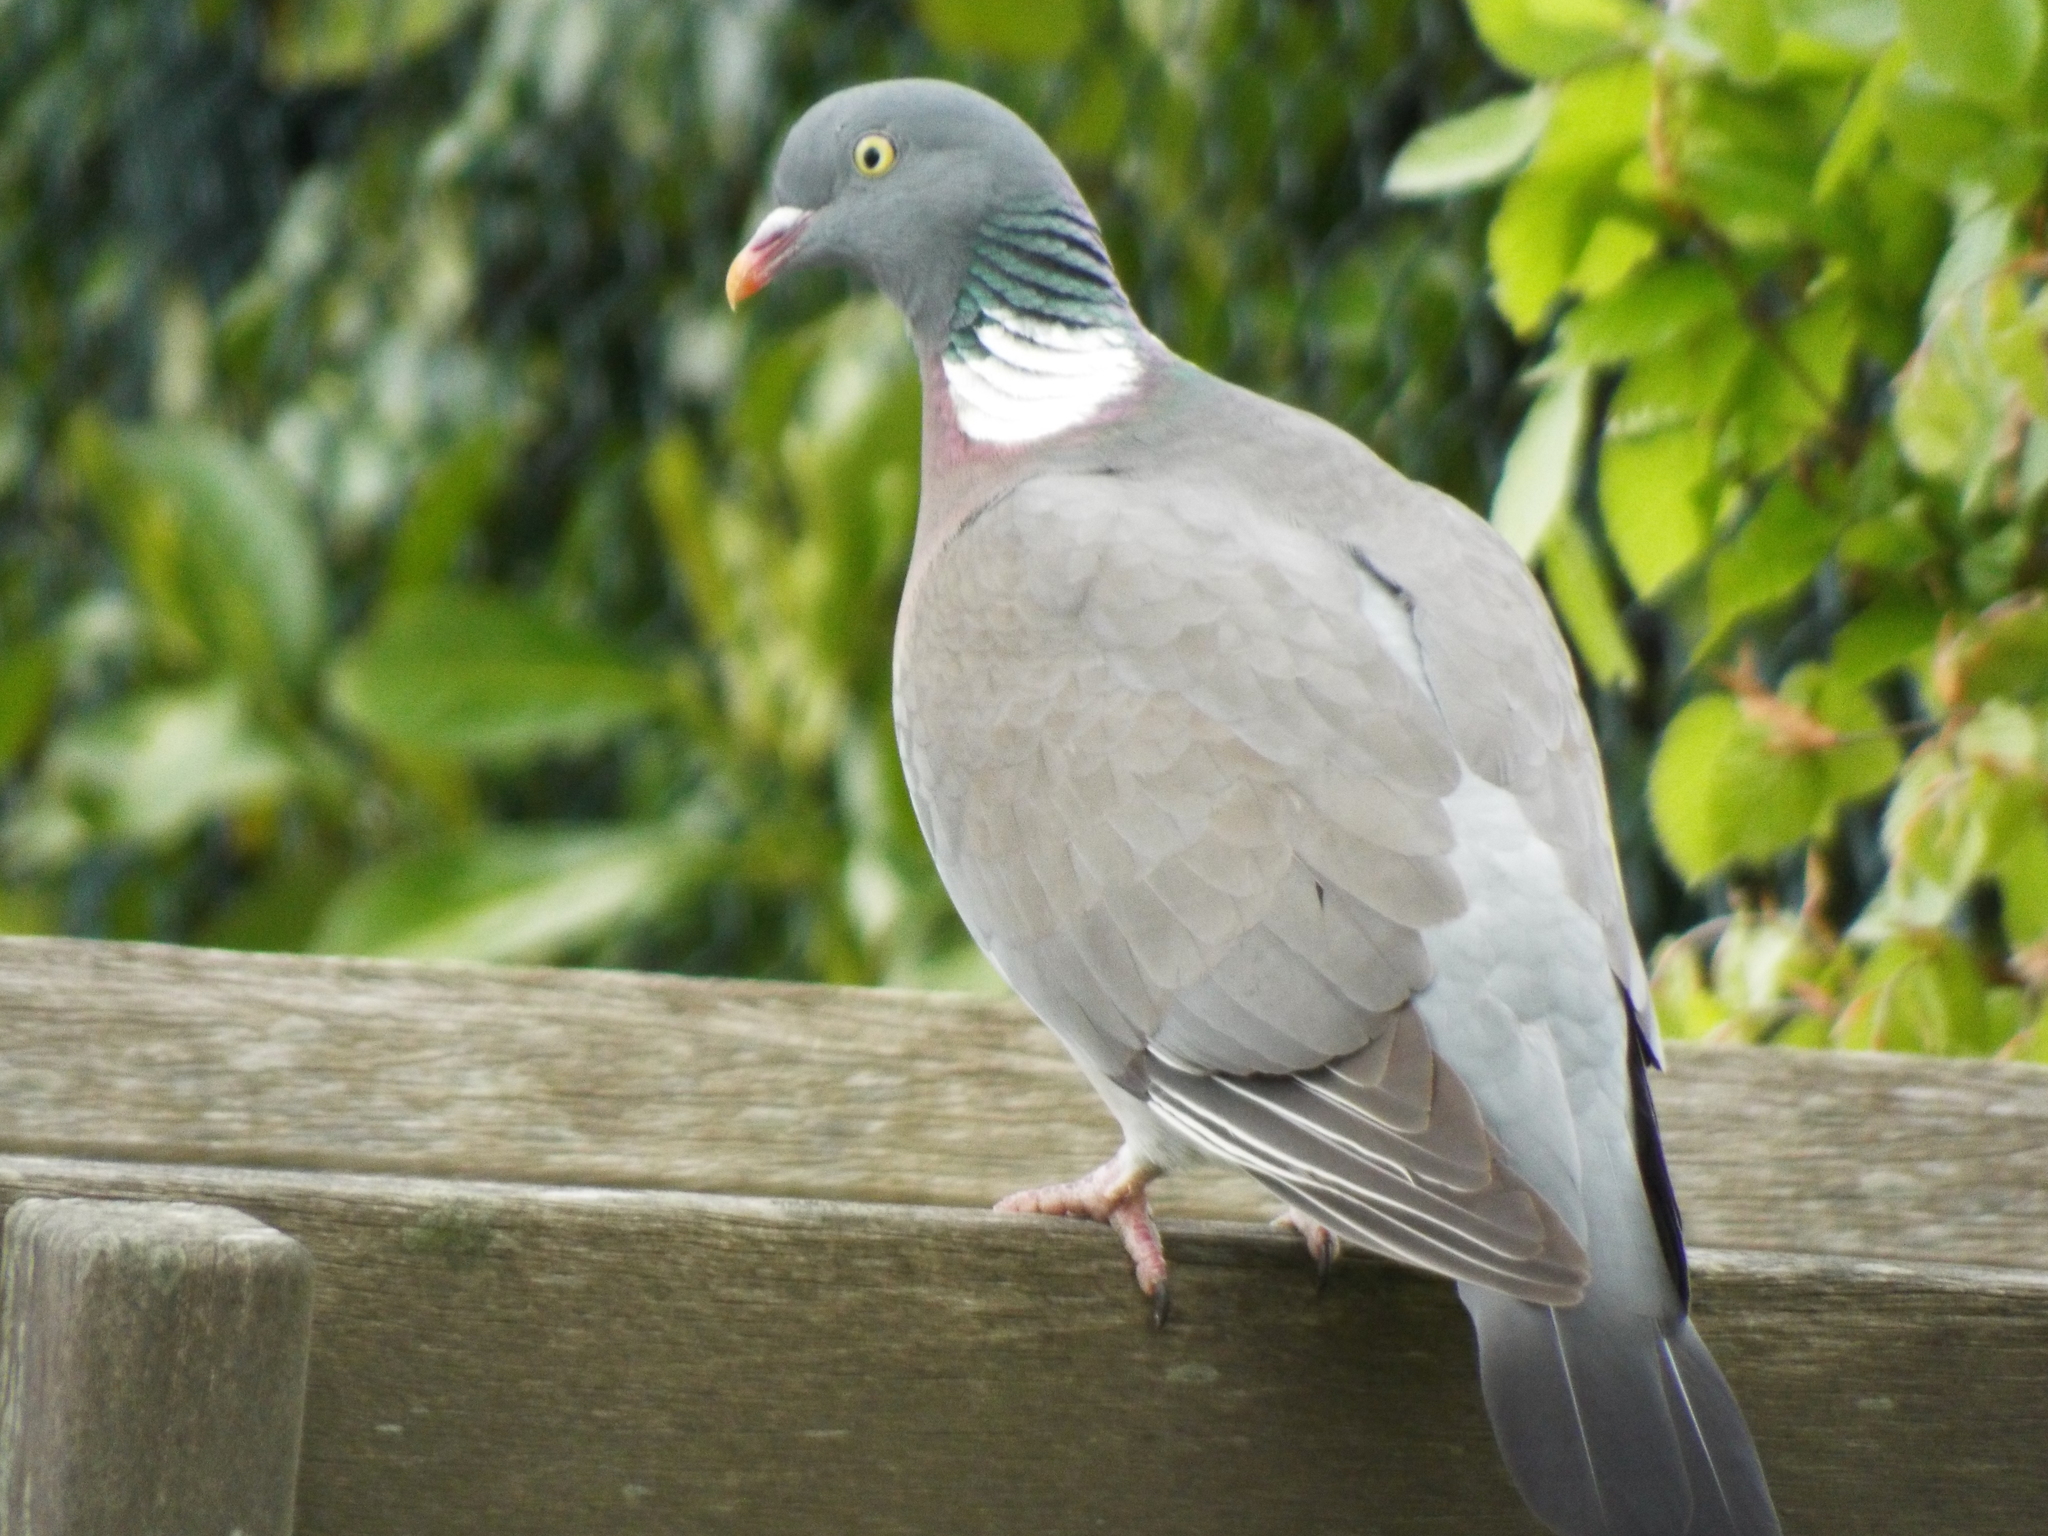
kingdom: Animalia
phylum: Chordata
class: Aves
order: Columbiformes
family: Columbidae
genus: Columba
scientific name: Columba palumbus
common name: Common wood pigeon
